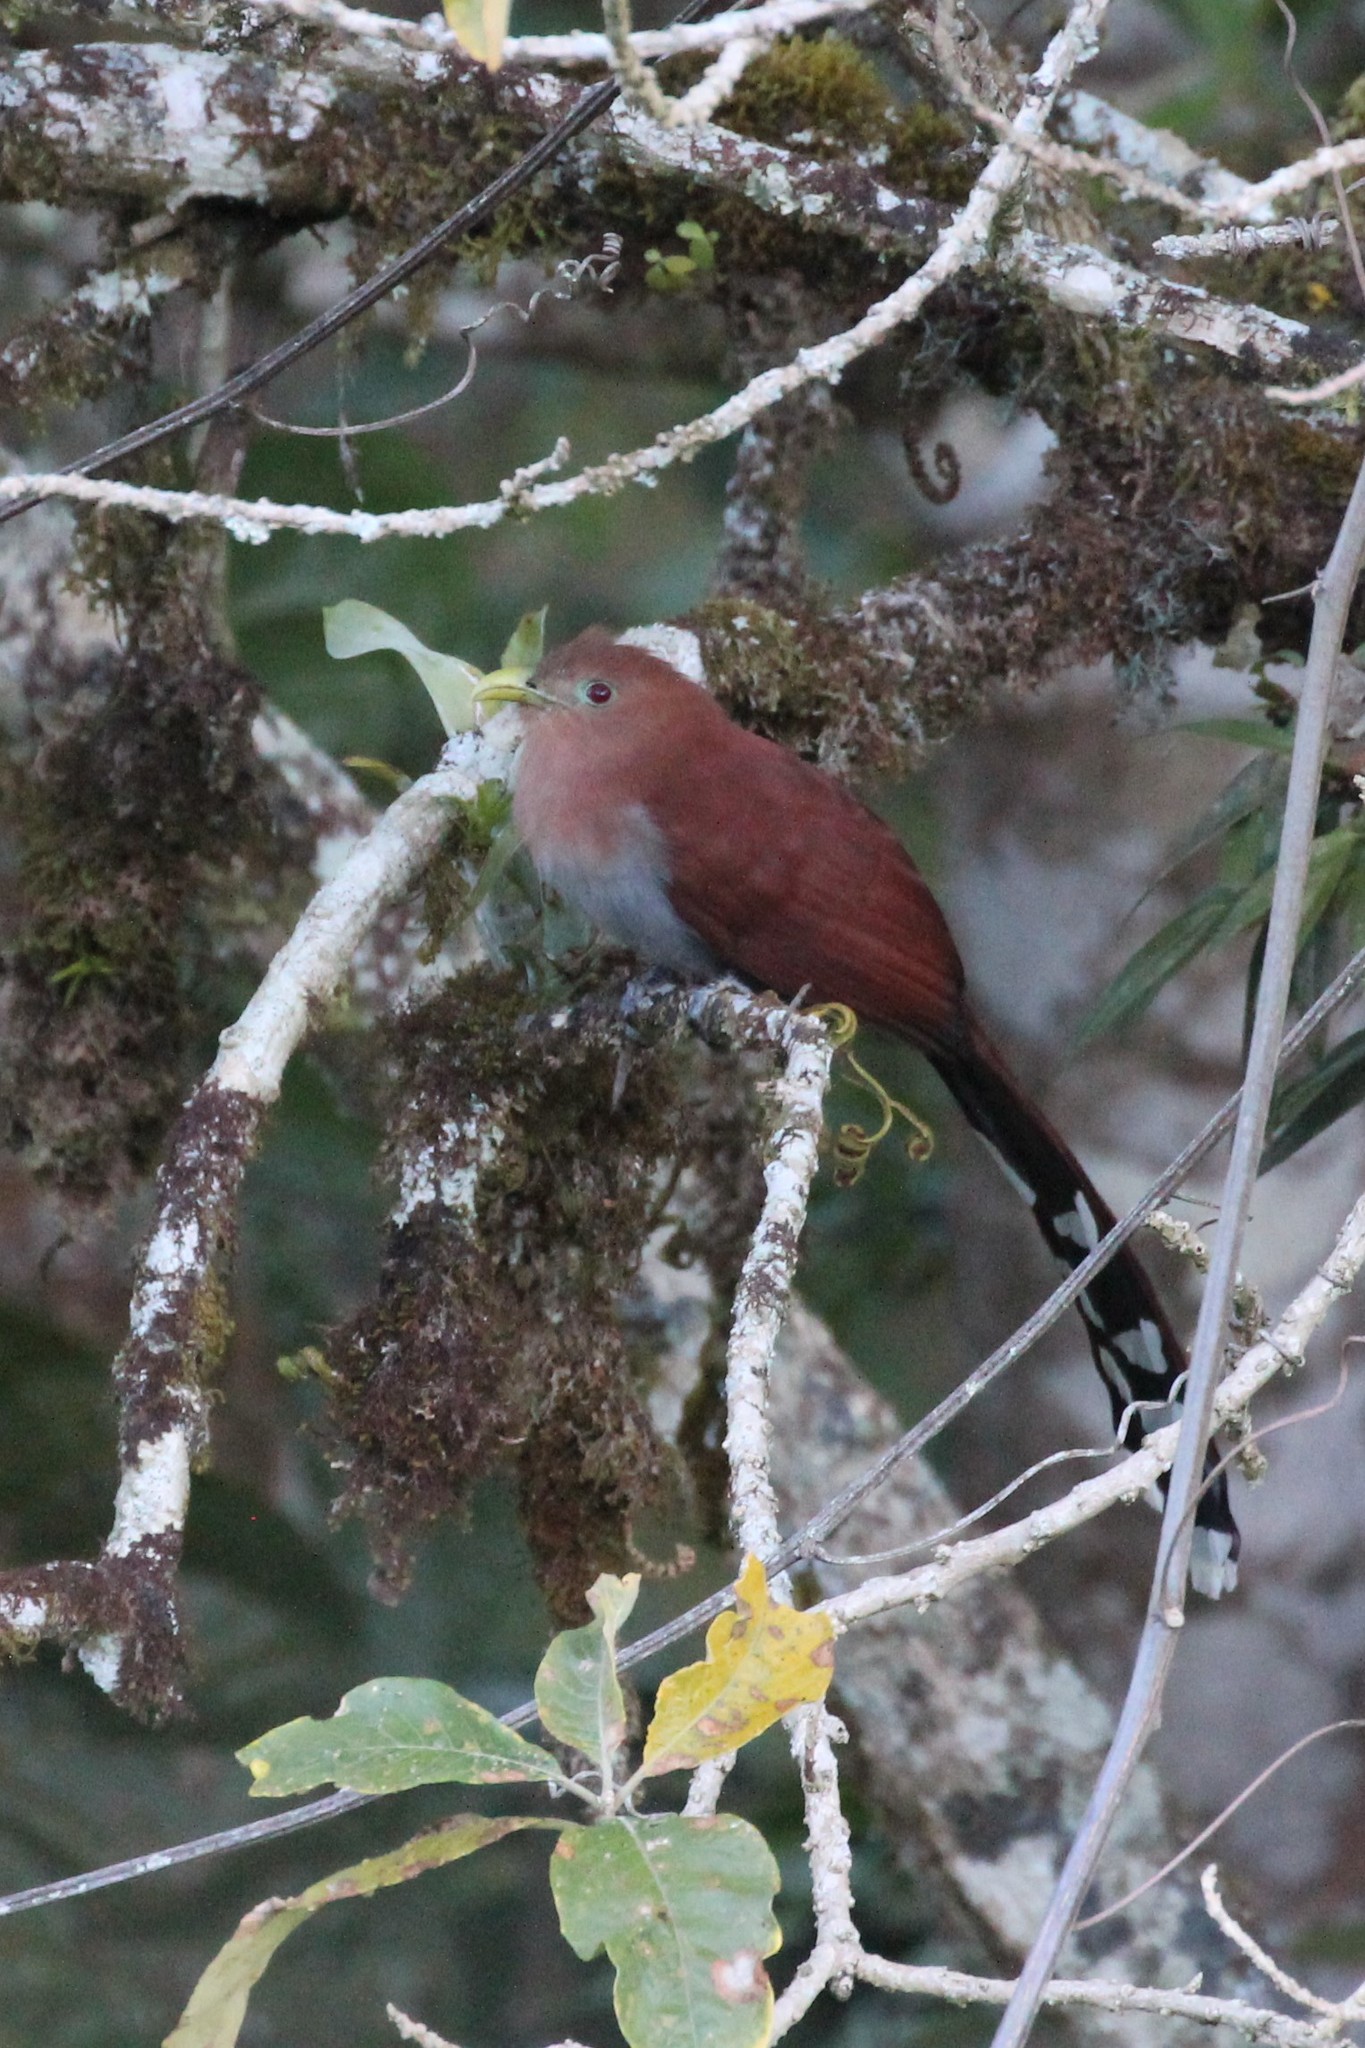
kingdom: Animalia
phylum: Chordata
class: Aves
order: Cuculiformes
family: Cuculidae
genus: Piaya
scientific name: Piaya cayana
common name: Squirrel cuckoo
